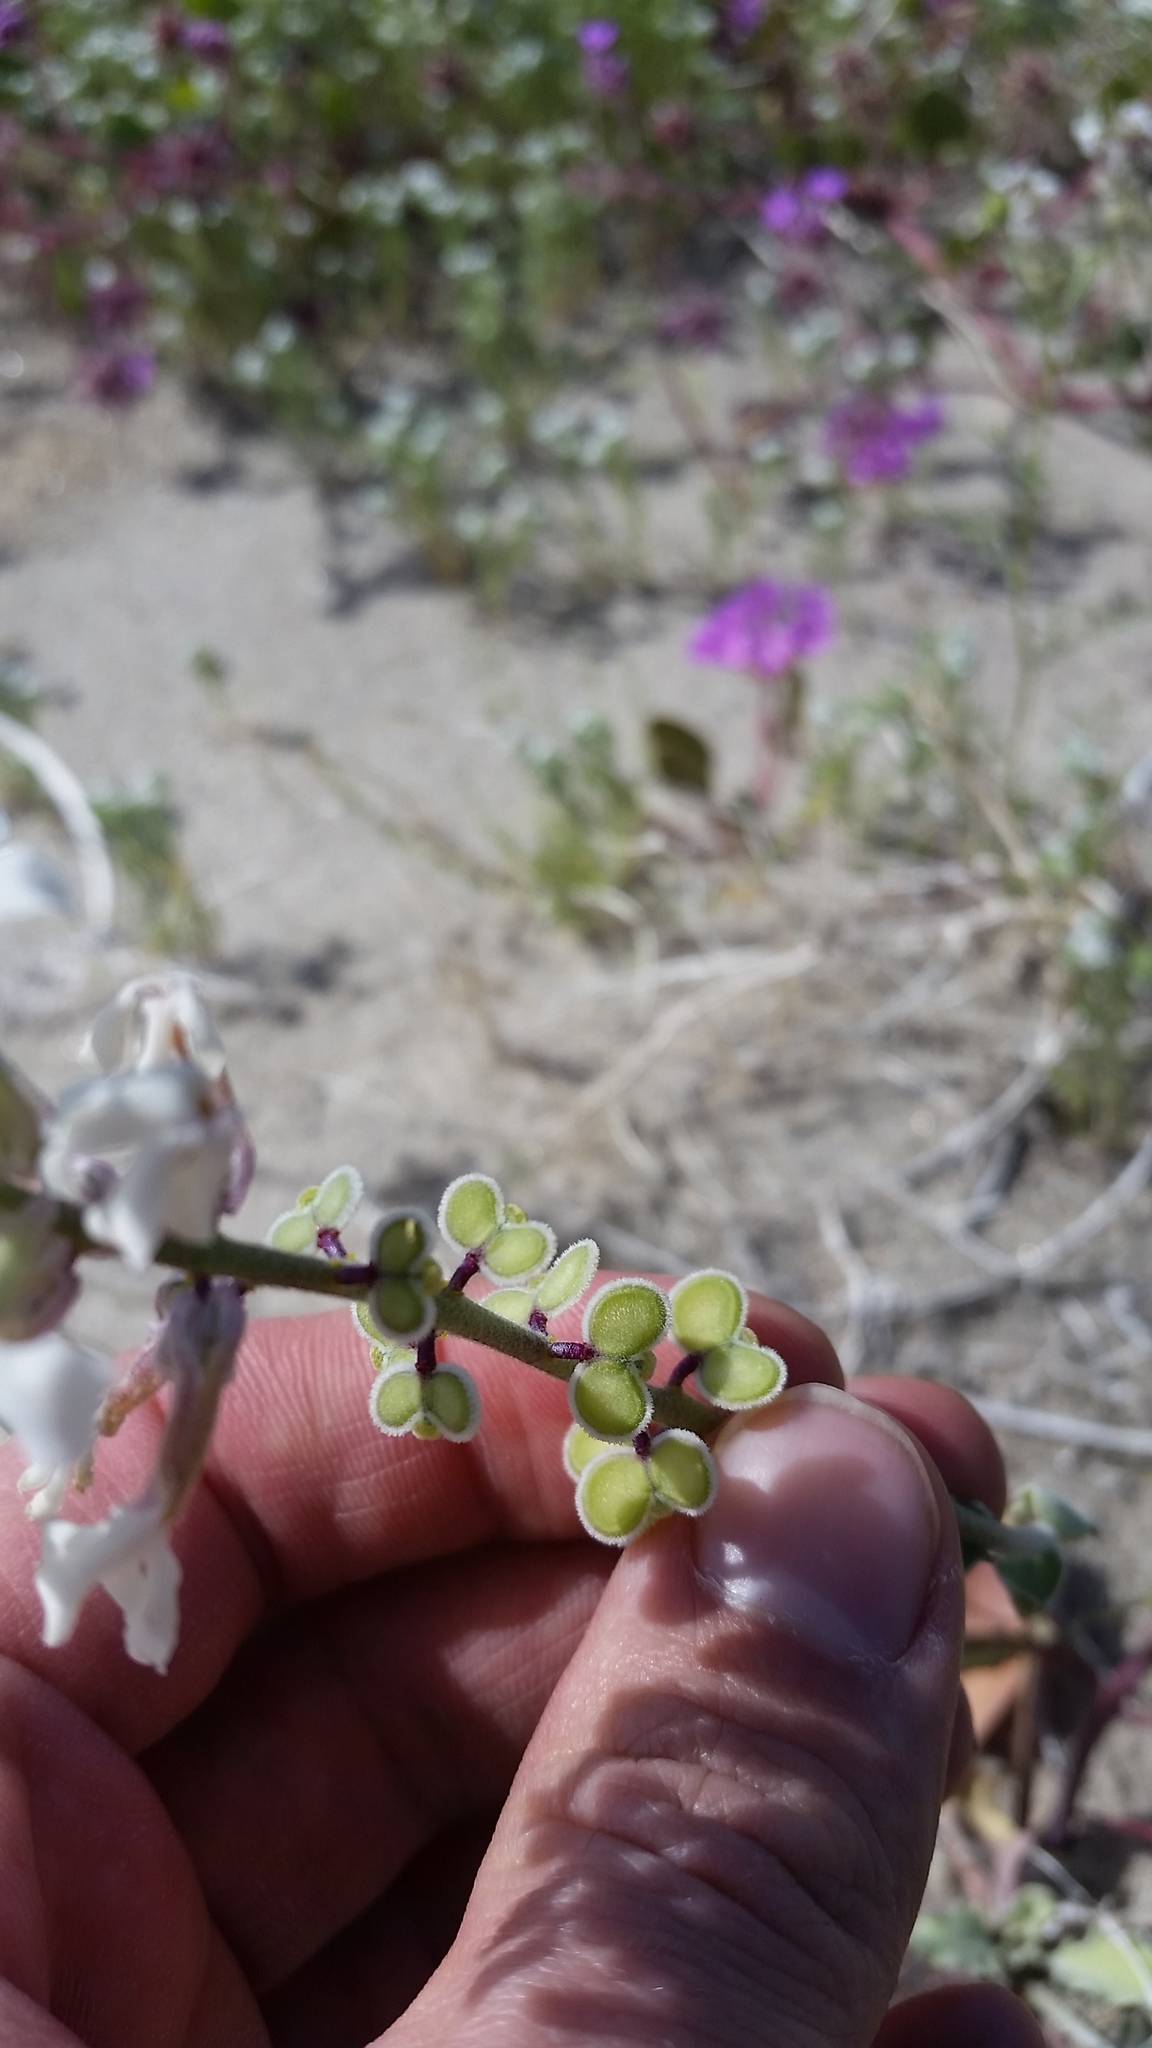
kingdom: Plantae
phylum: Tracheophyta
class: Magnoliopsida
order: Brassicales
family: Brassicaceae
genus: Dithyrea
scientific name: Dithyrea californica
